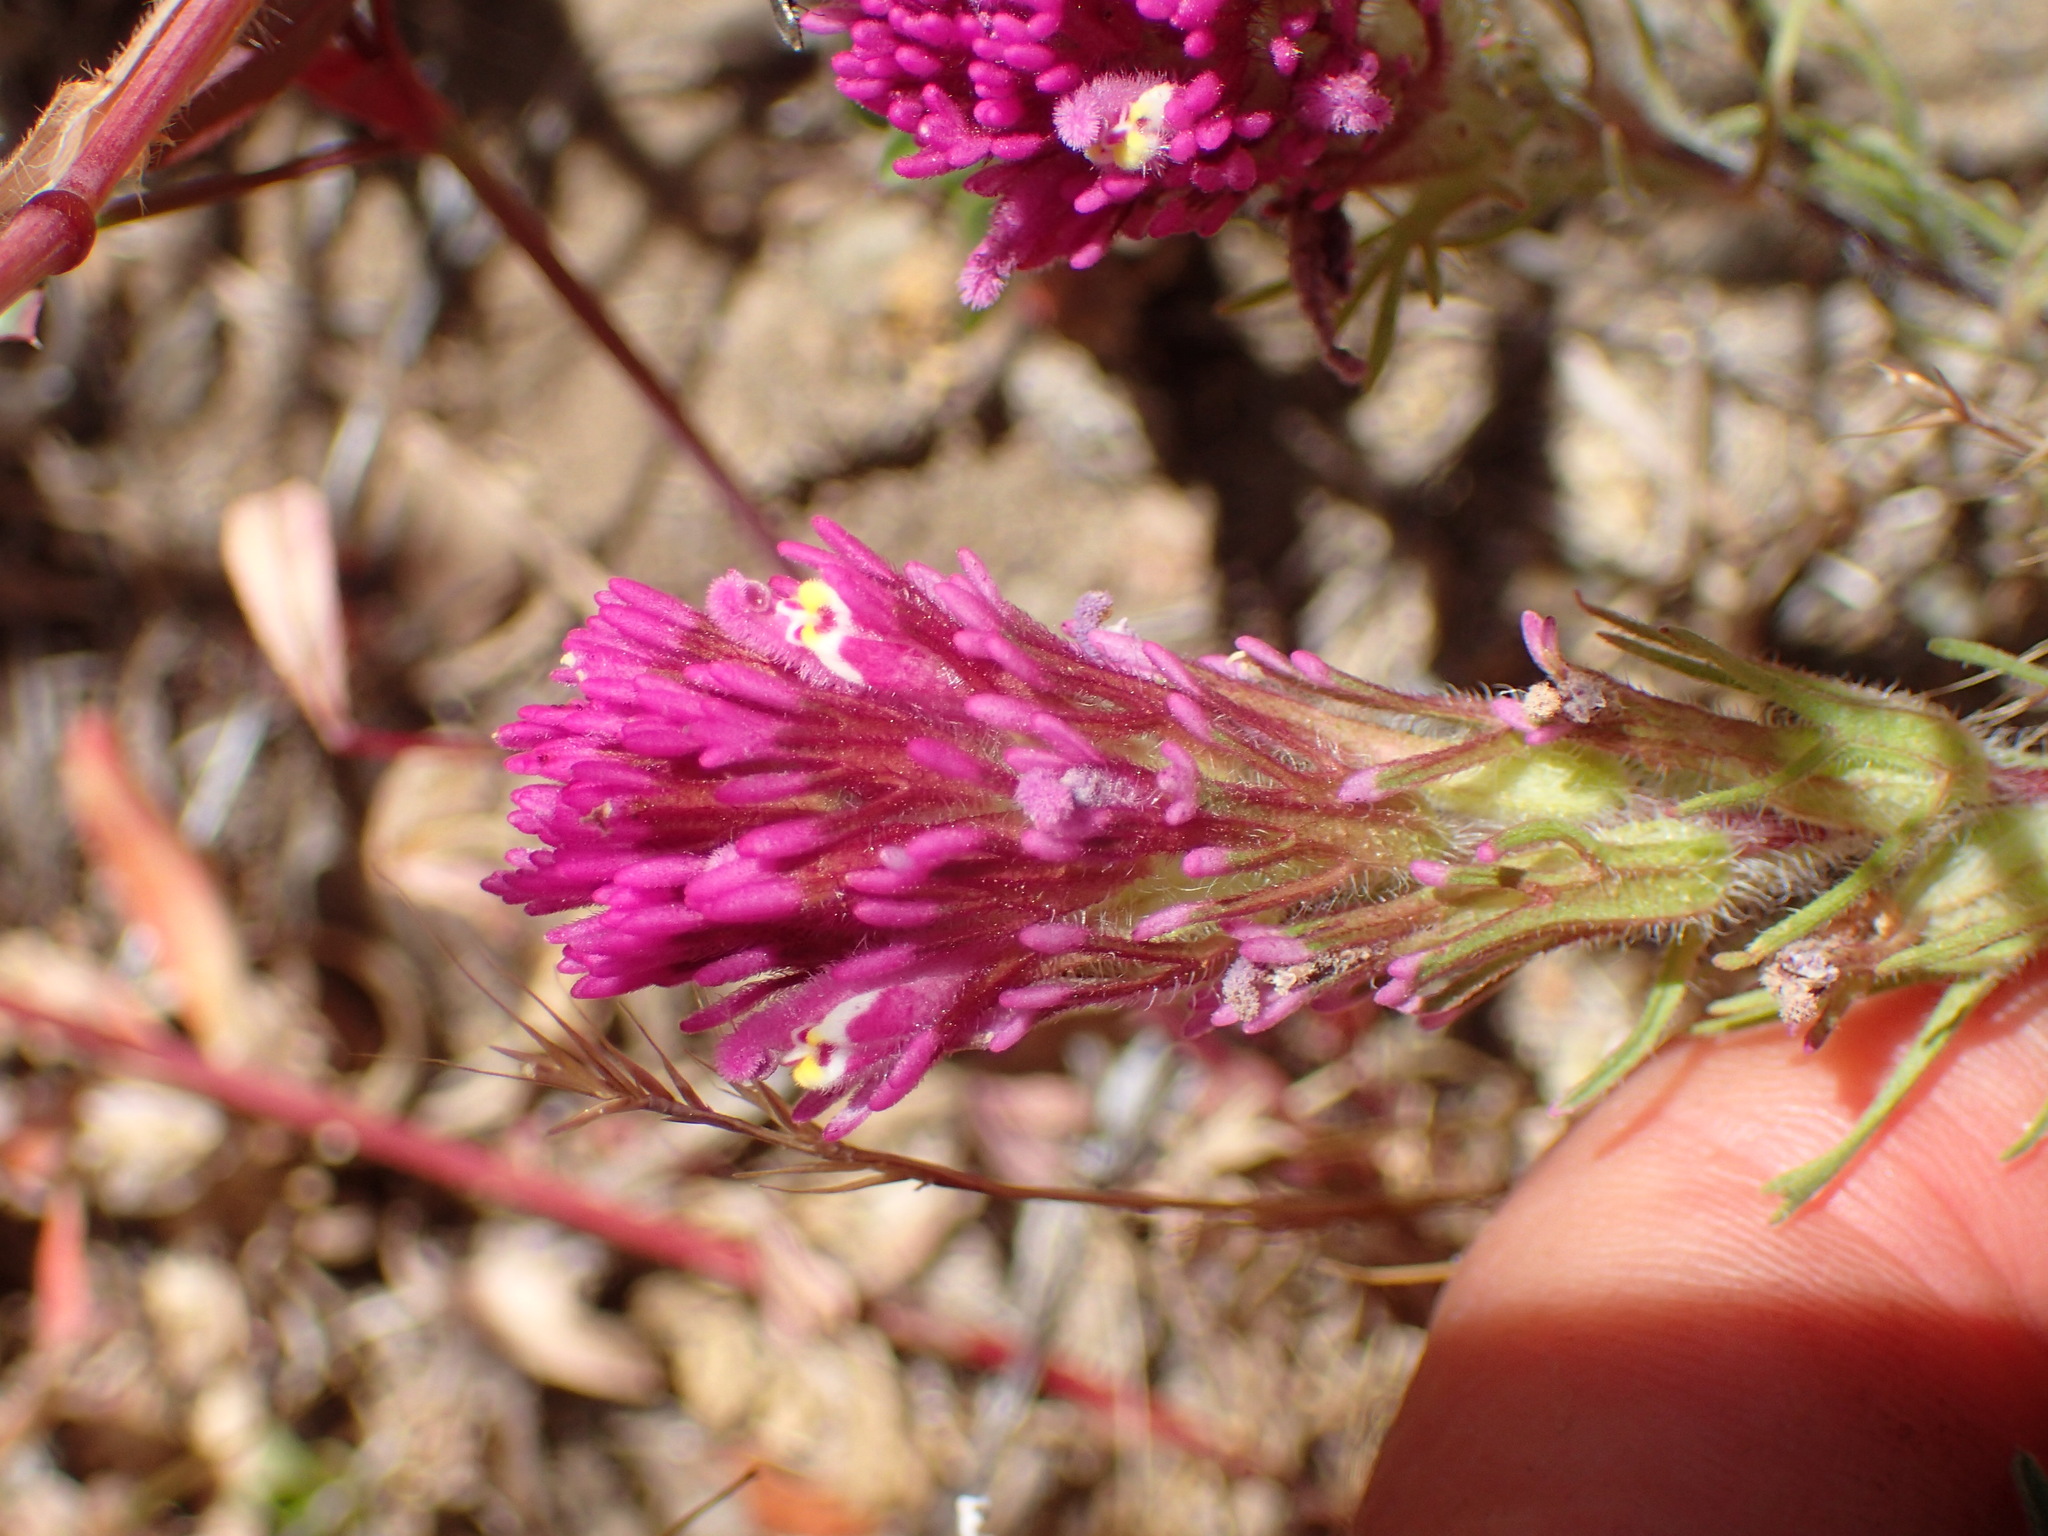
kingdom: Plantae
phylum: Tracheophyta
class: Magnoliopsida
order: Lamiales
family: Orobanchaceae
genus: Castilleja
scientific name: Castilleja exserta
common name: Purple owl-clover
